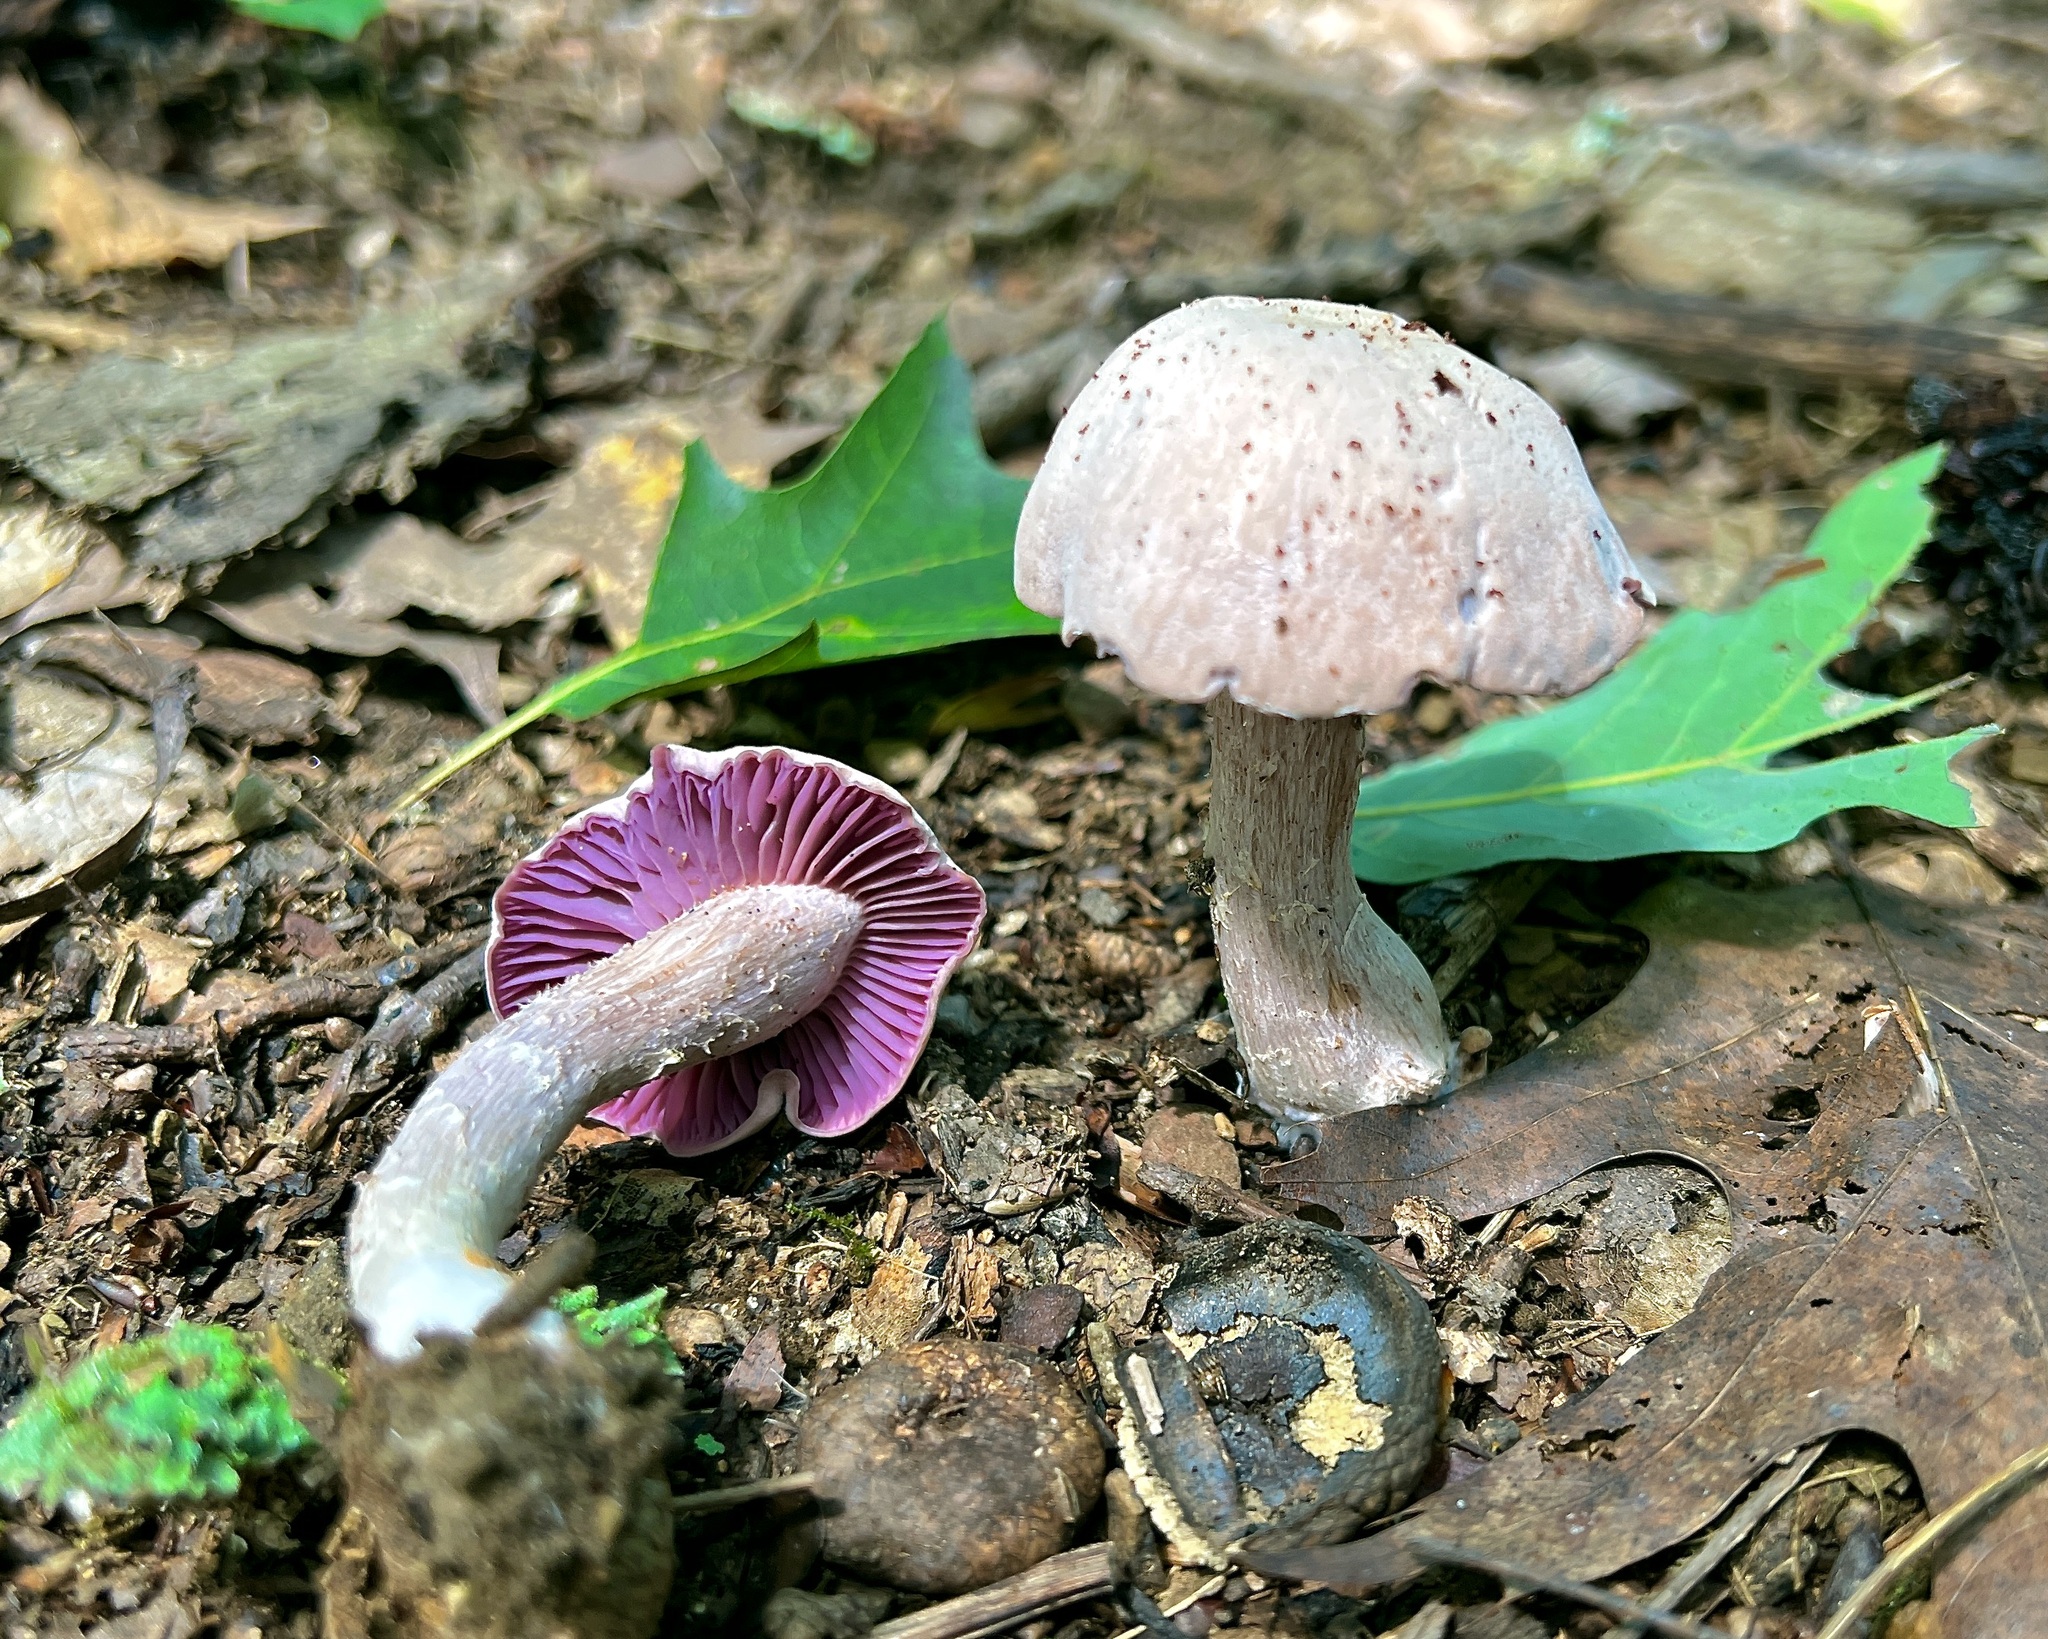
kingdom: Fungi
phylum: Basidiomycota
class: Agaricomycetes
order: Agaricales
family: Hydnangiaceae
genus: Laccaria
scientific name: Laccaria ochropurpurea
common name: Purple laccaria
